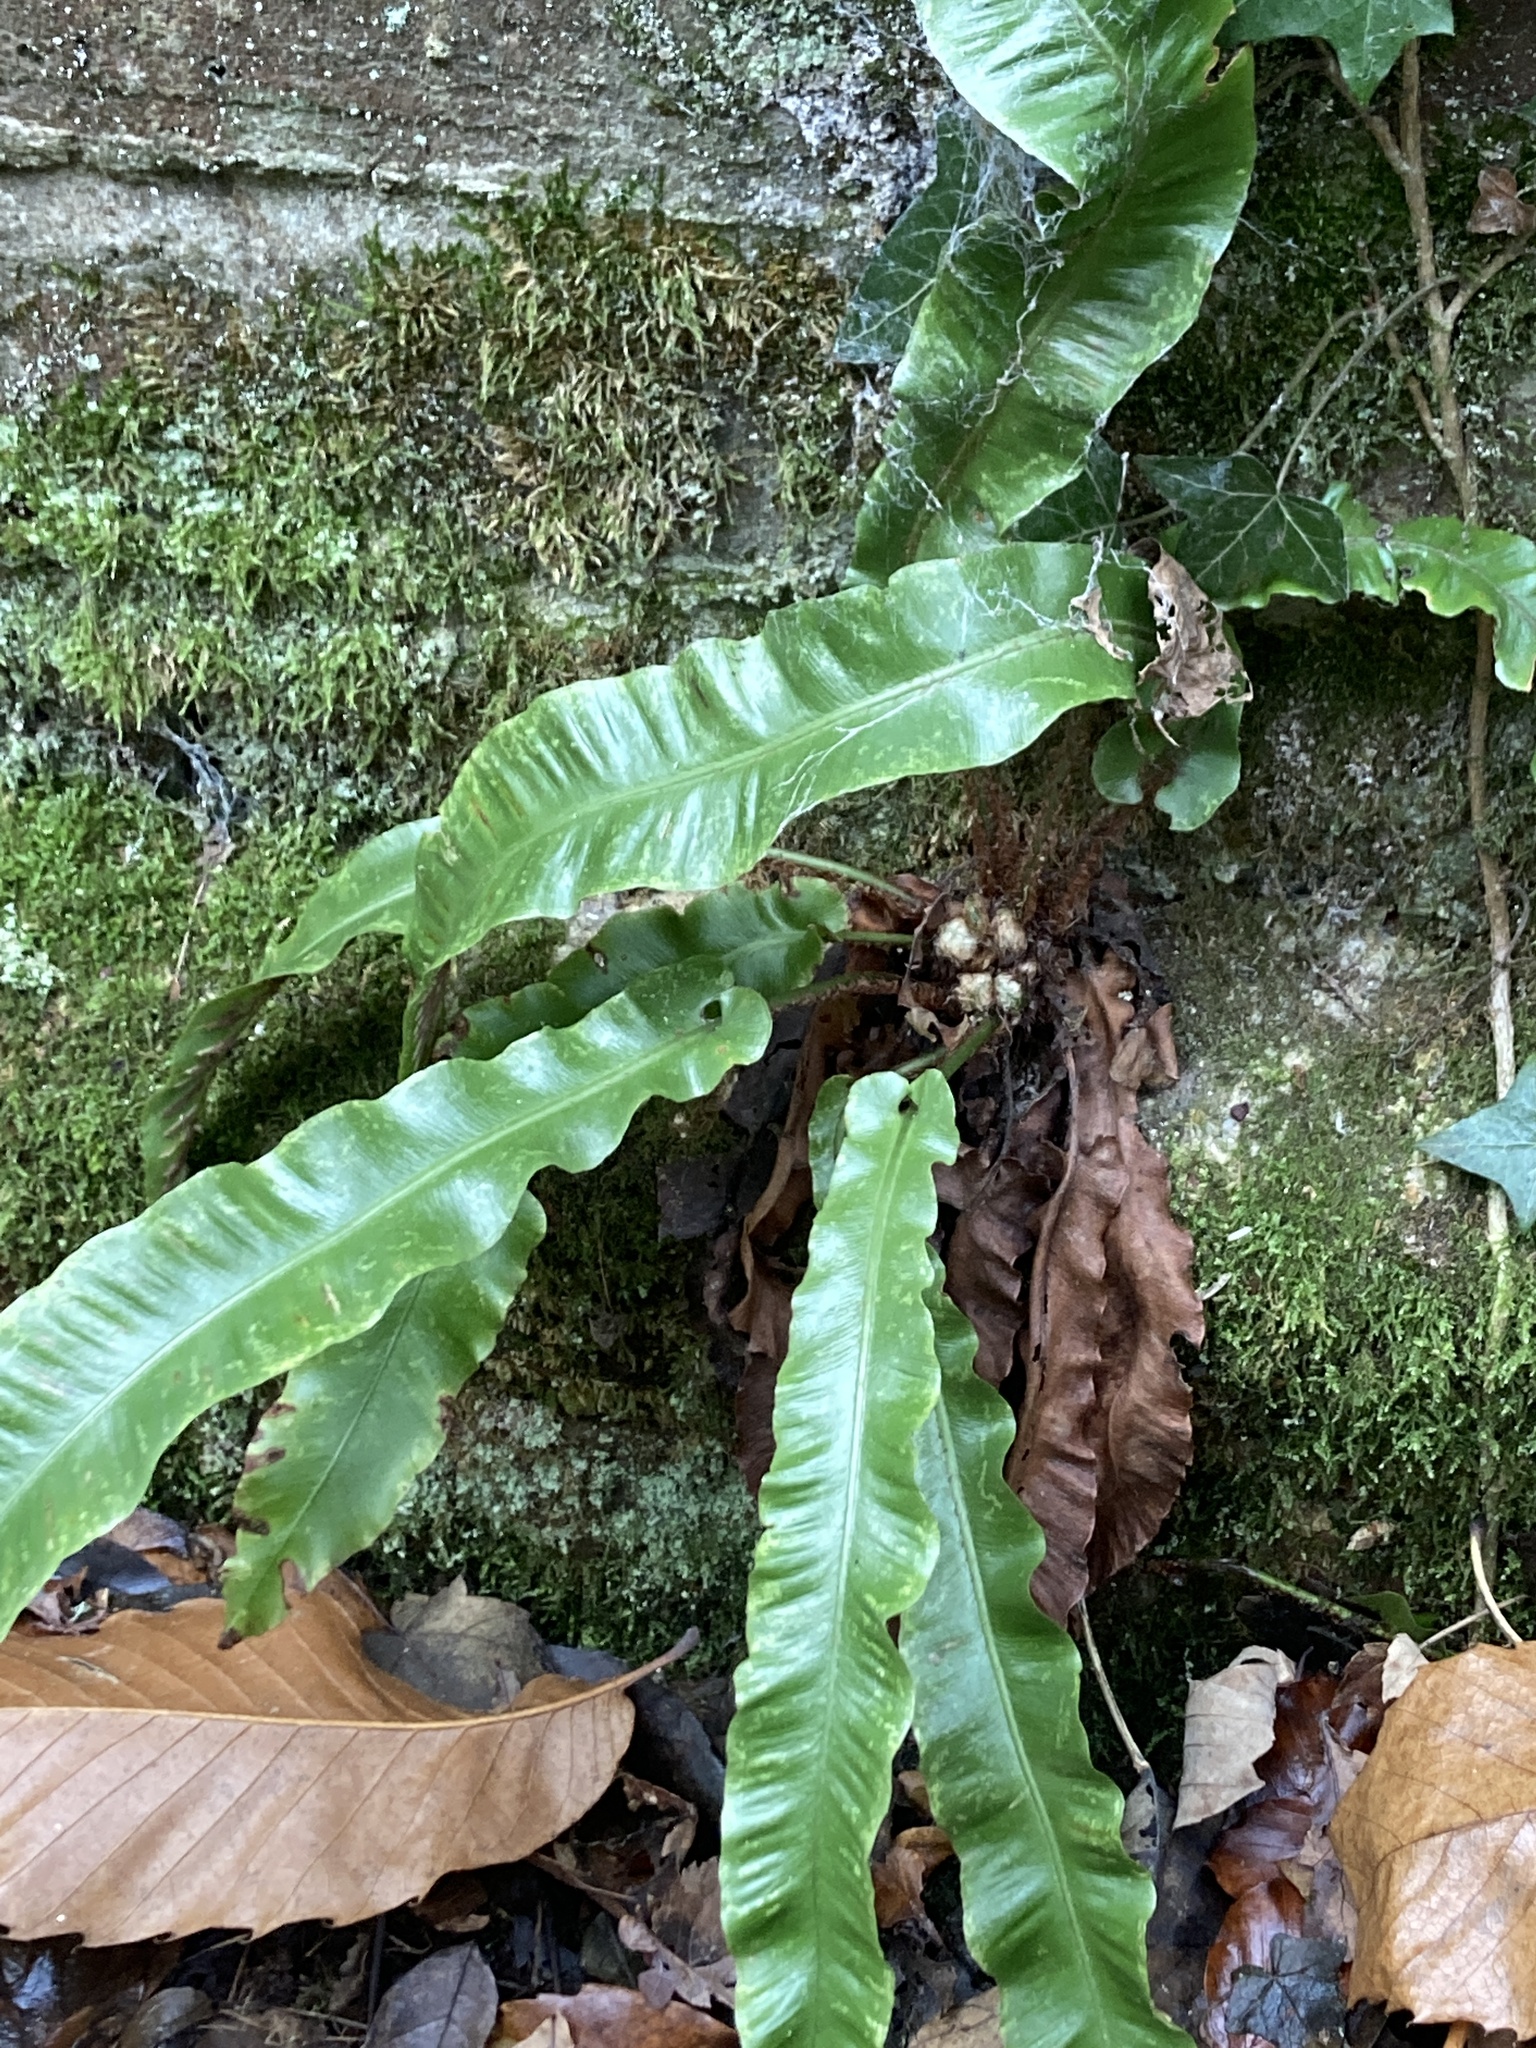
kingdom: Plantae
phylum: Tracheophyta
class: Polypodiopsida
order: Polypodiales
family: Aspleniaceae
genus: Asplenium
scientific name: Asplenium scolopendrium
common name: Hart's-tongue fern
